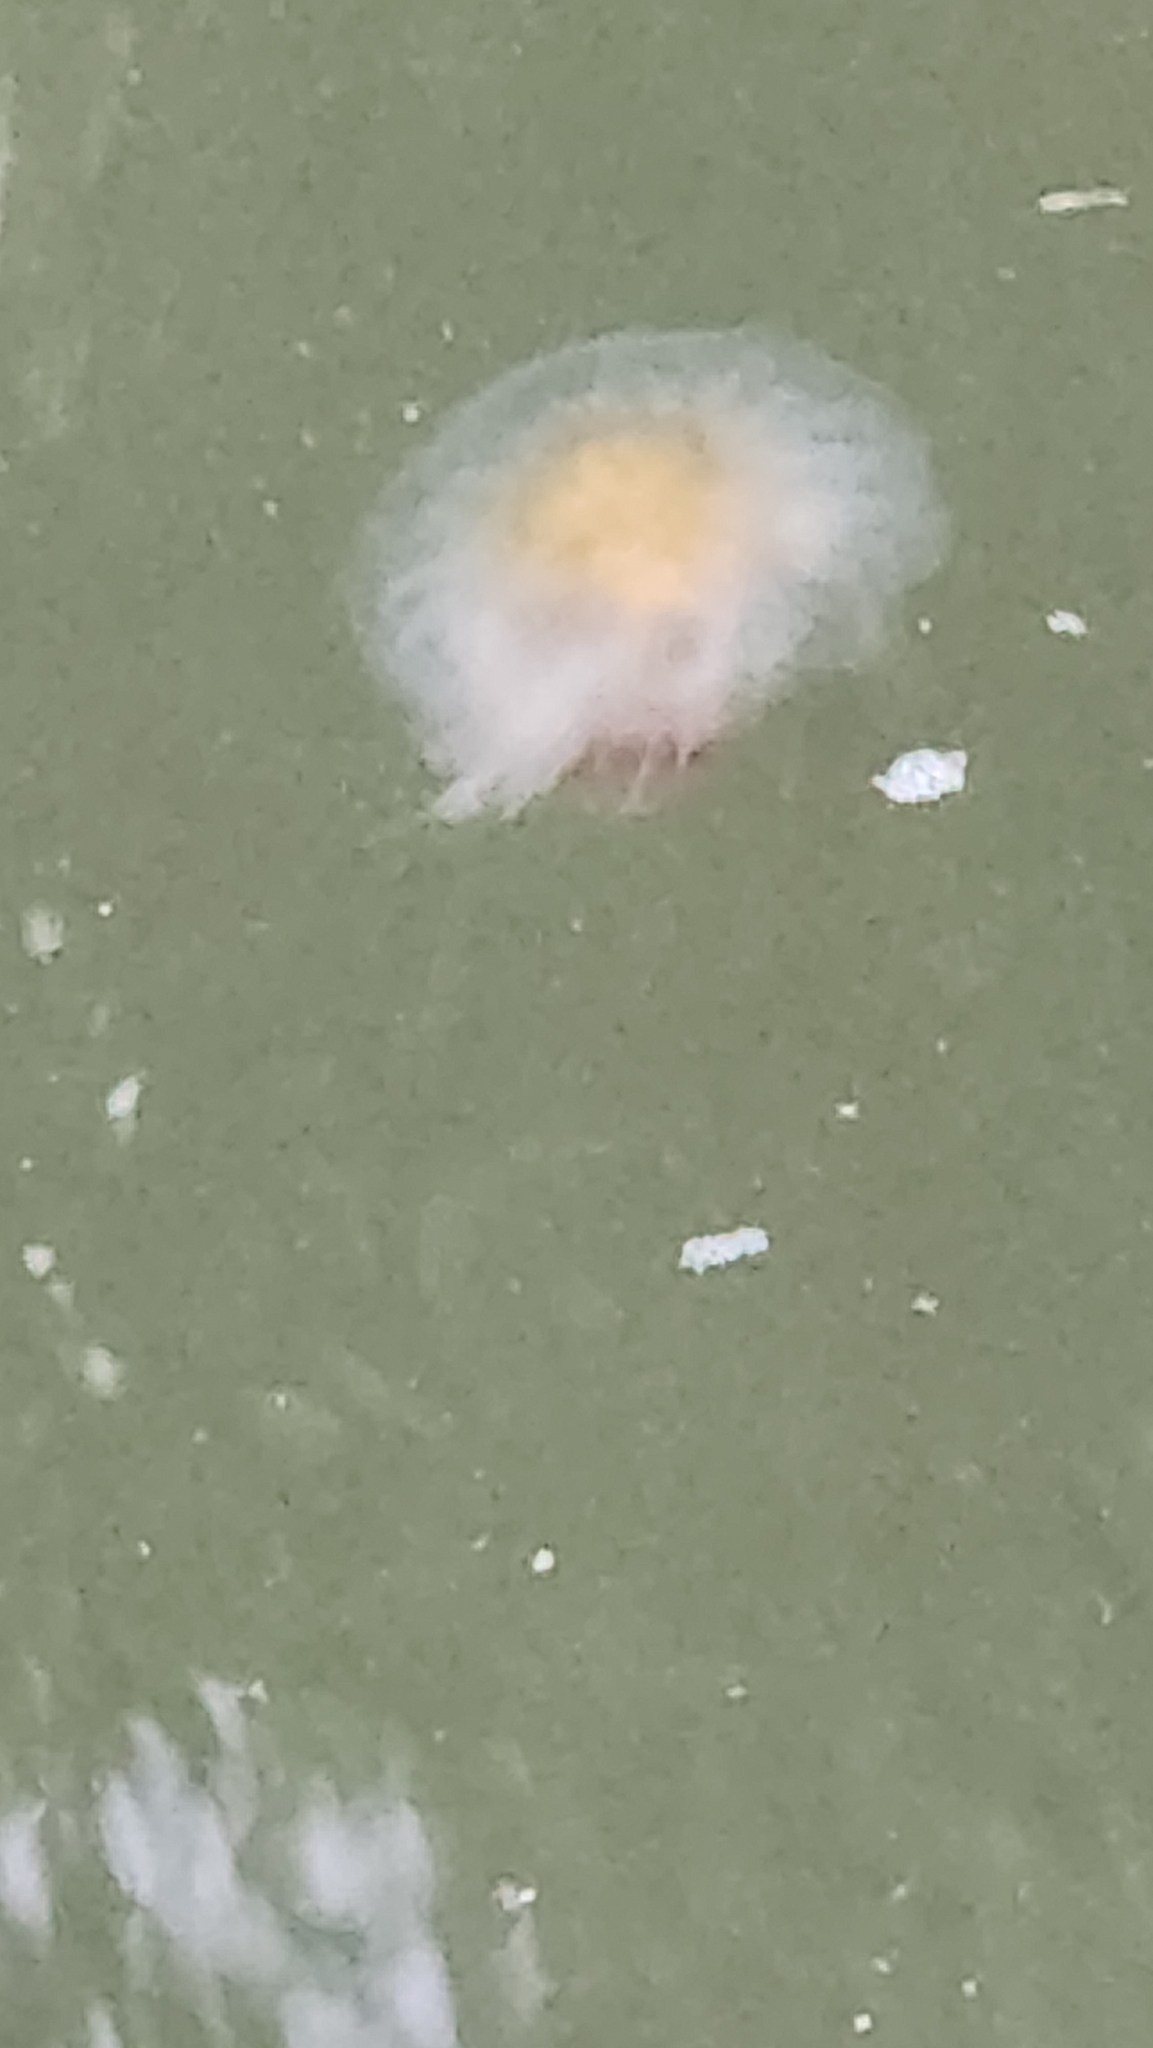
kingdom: Animalia
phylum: Cnidaria
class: Scyphozoa
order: Semaeostomeae
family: Cyaneidae
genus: Cyanea
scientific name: Cyanea fulva
